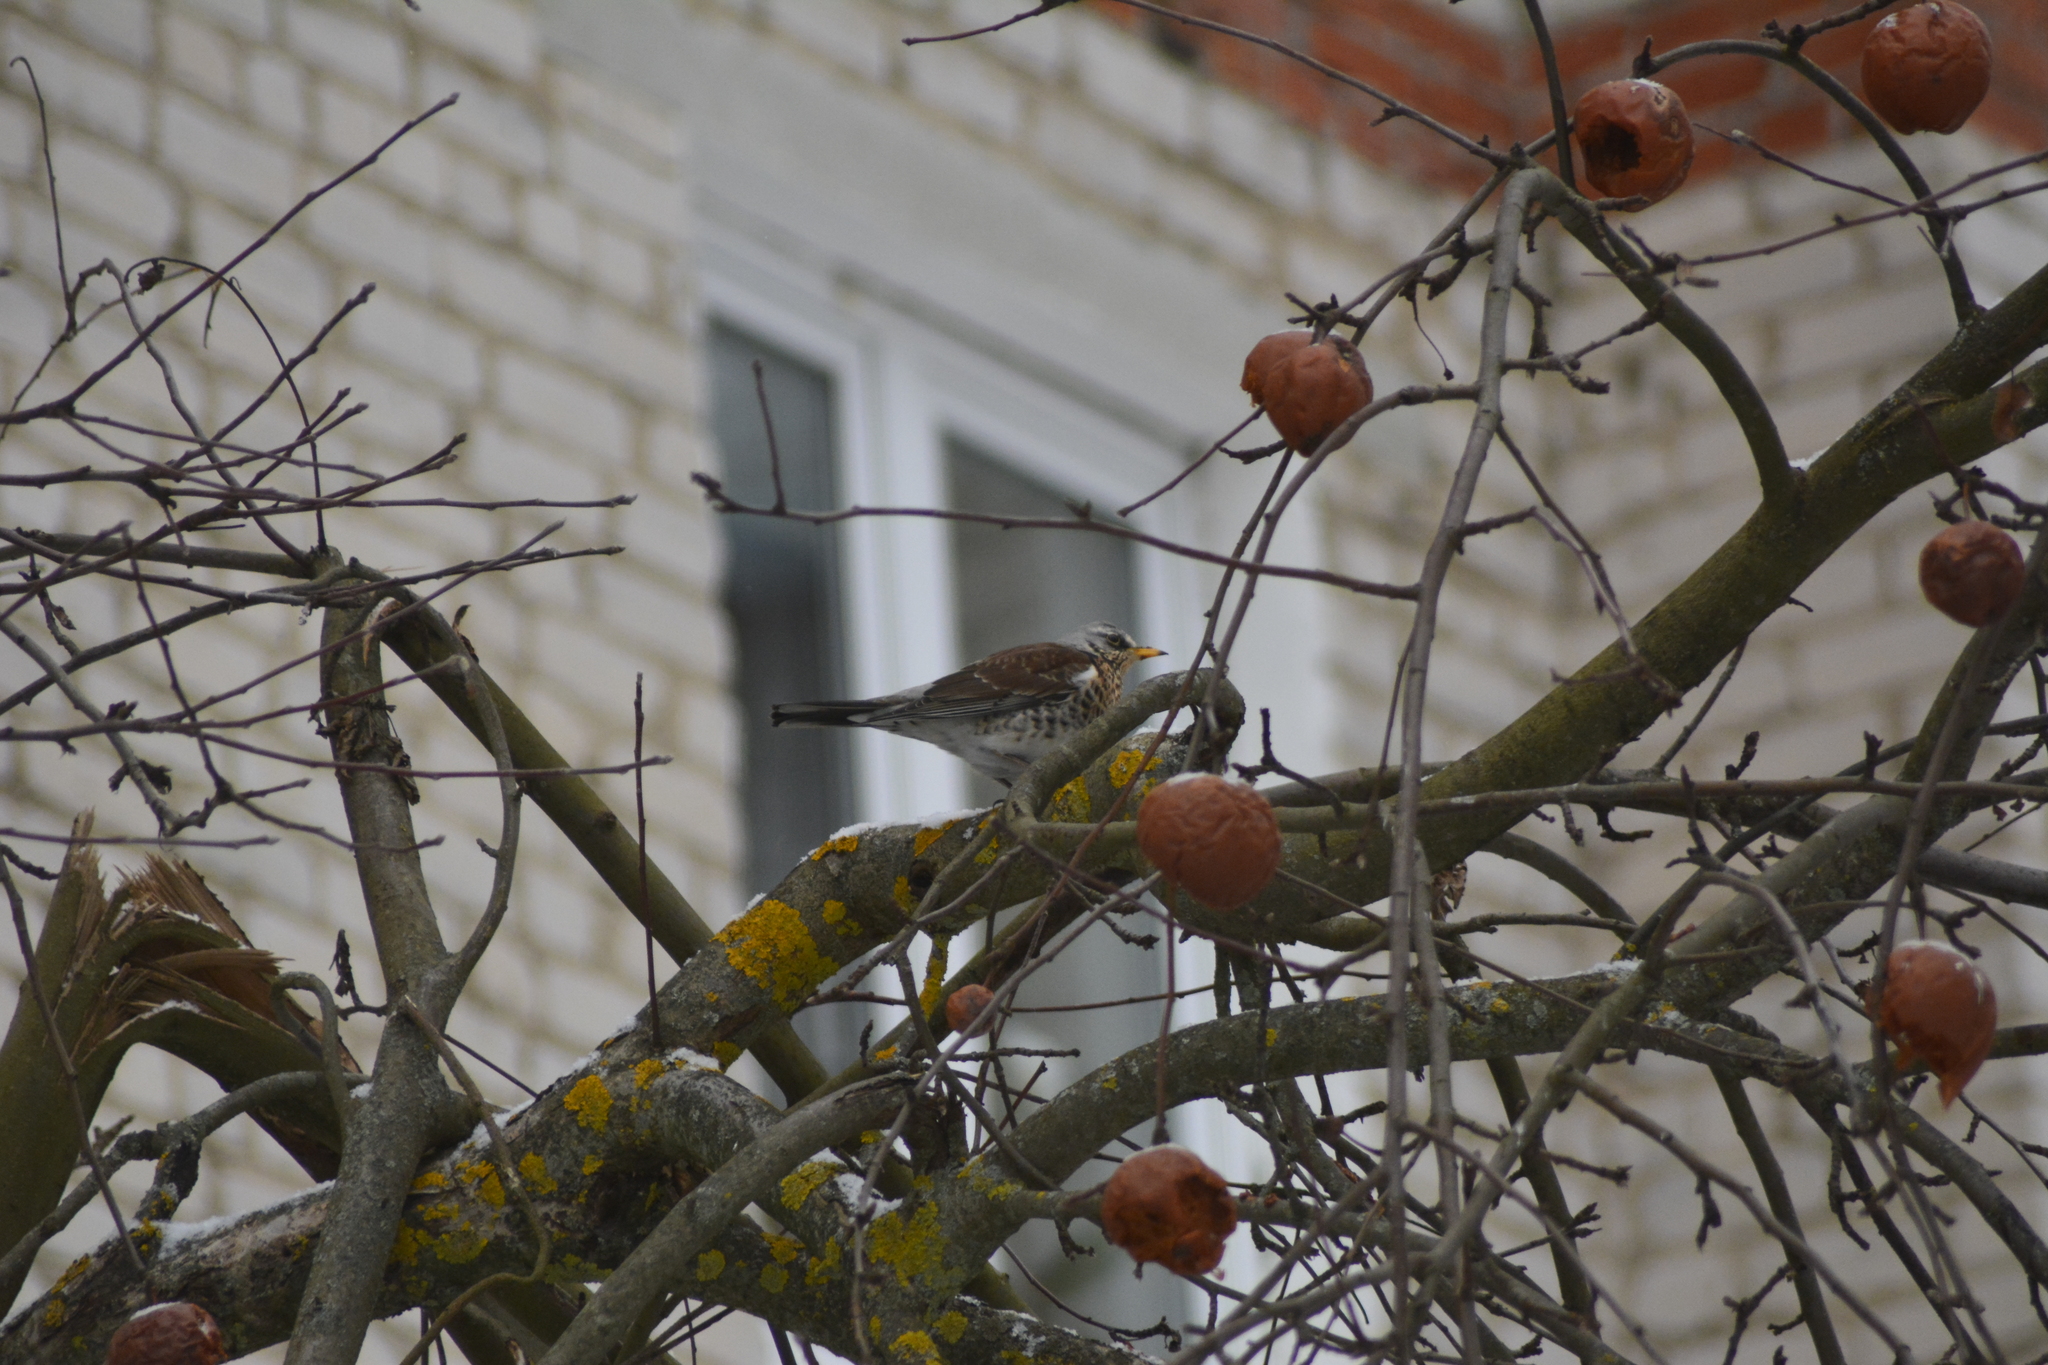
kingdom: Animalia
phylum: Chordata
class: Aves
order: Passeriformes
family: Turdidae
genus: Turdus
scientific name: Turdus pilaris
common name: Fieldfare
